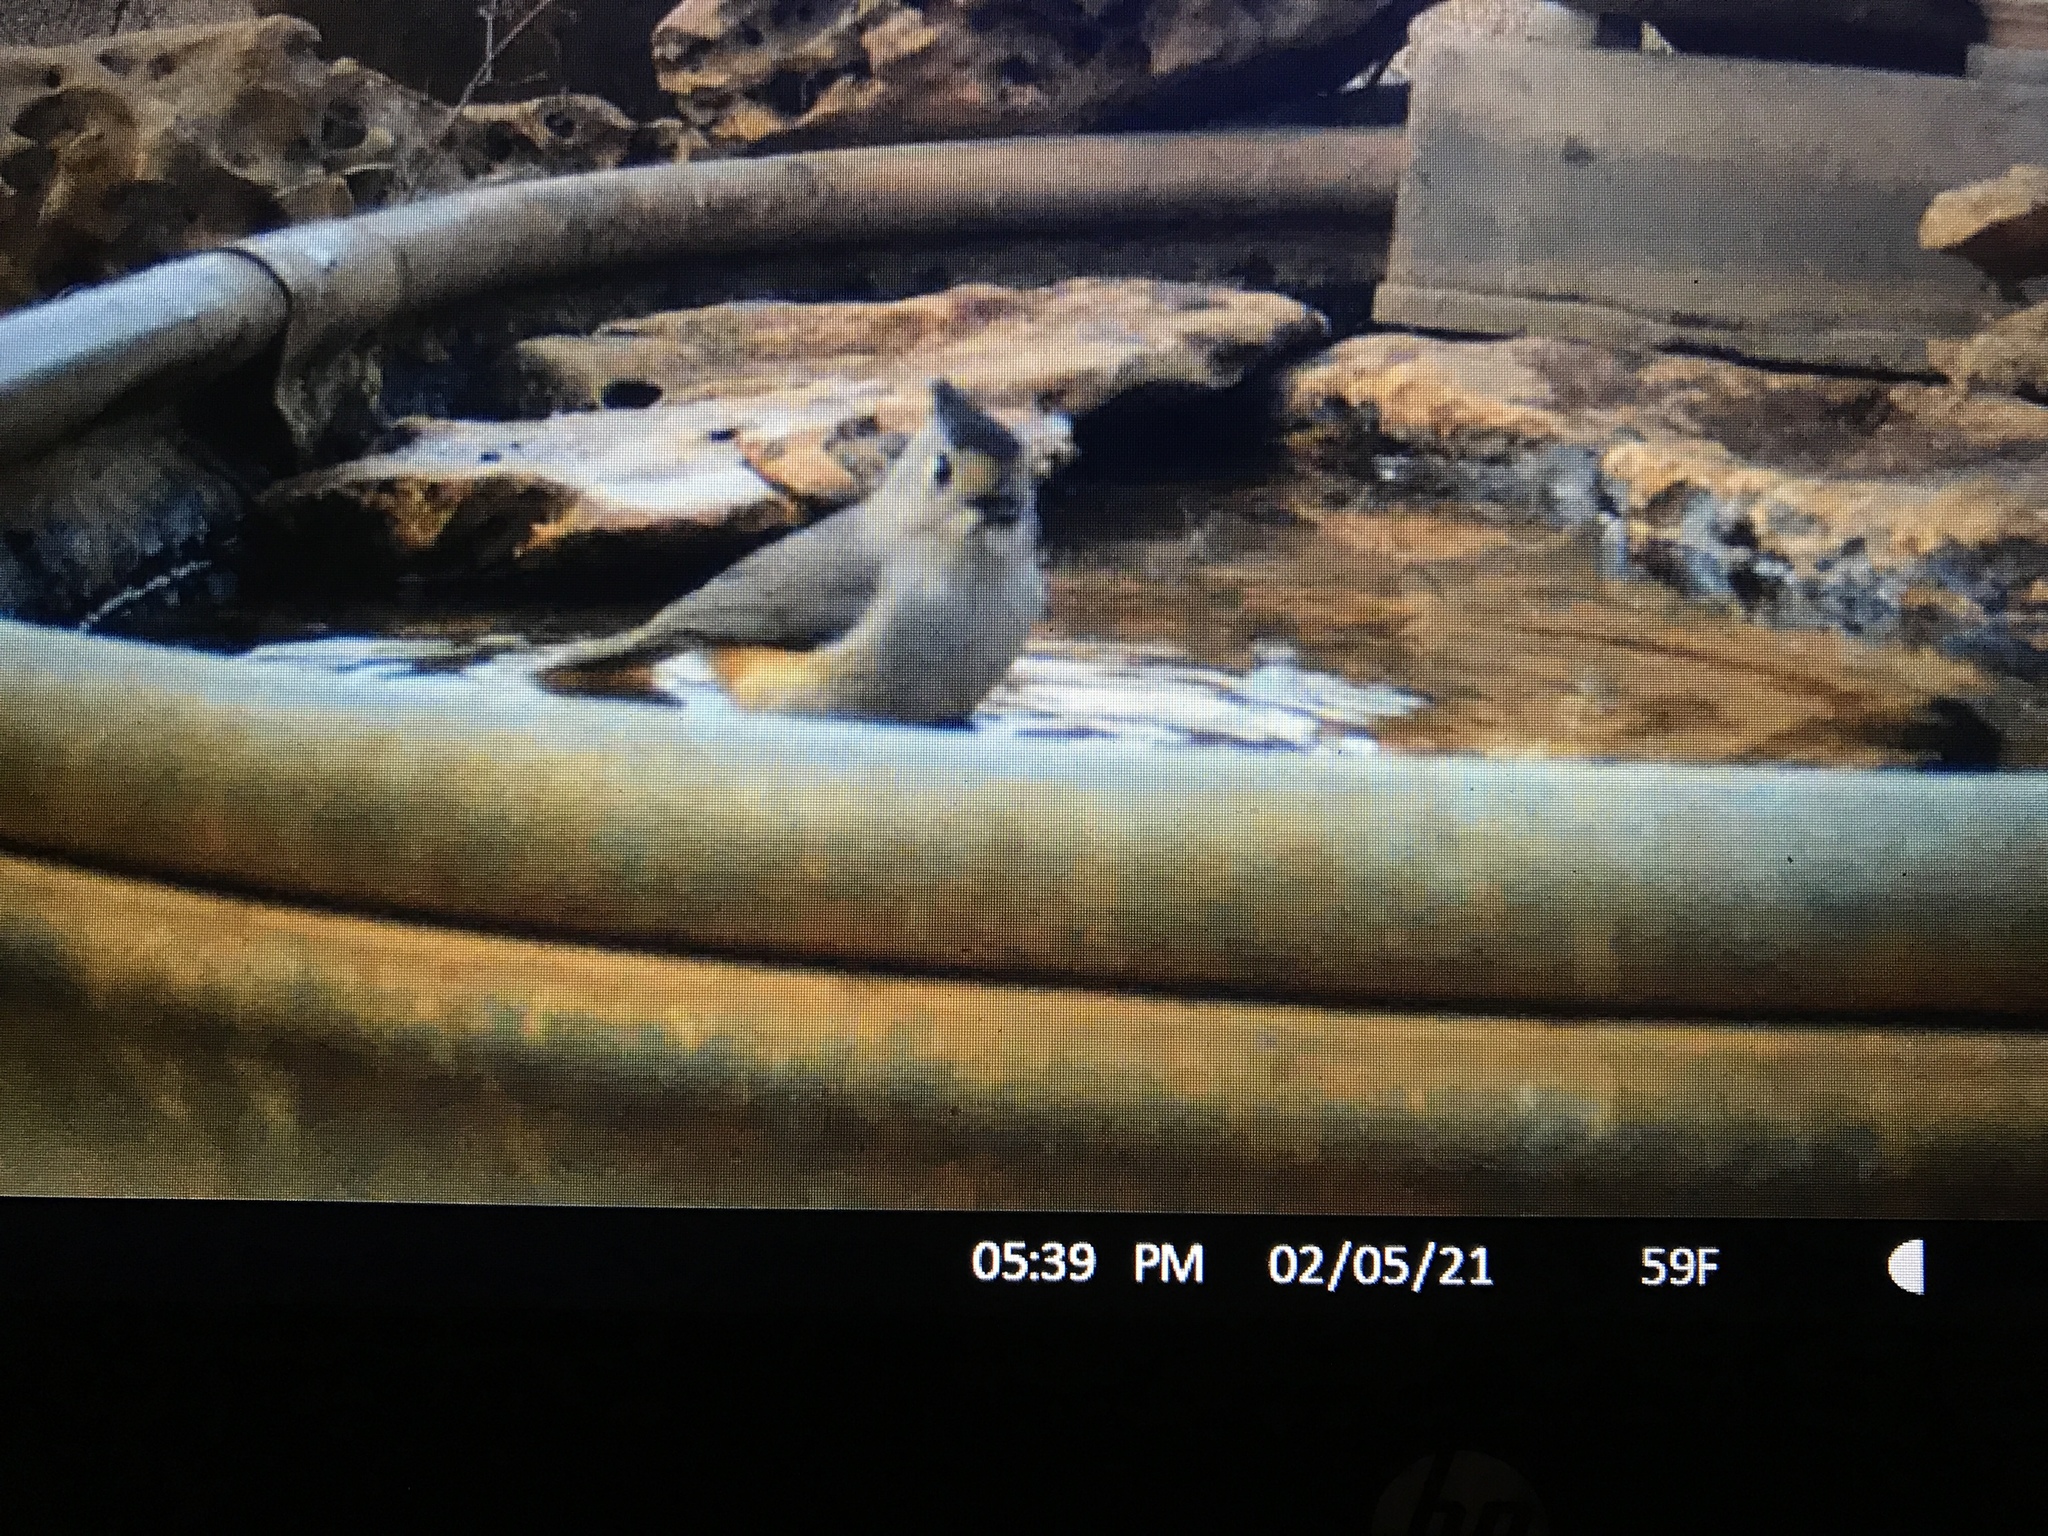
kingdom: Animalia
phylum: Chordata
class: Aves
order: Passeriformes
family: Paridae
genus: Baeolophus
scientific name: Baeolophus atricristatus
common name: Black-crested titmouse
